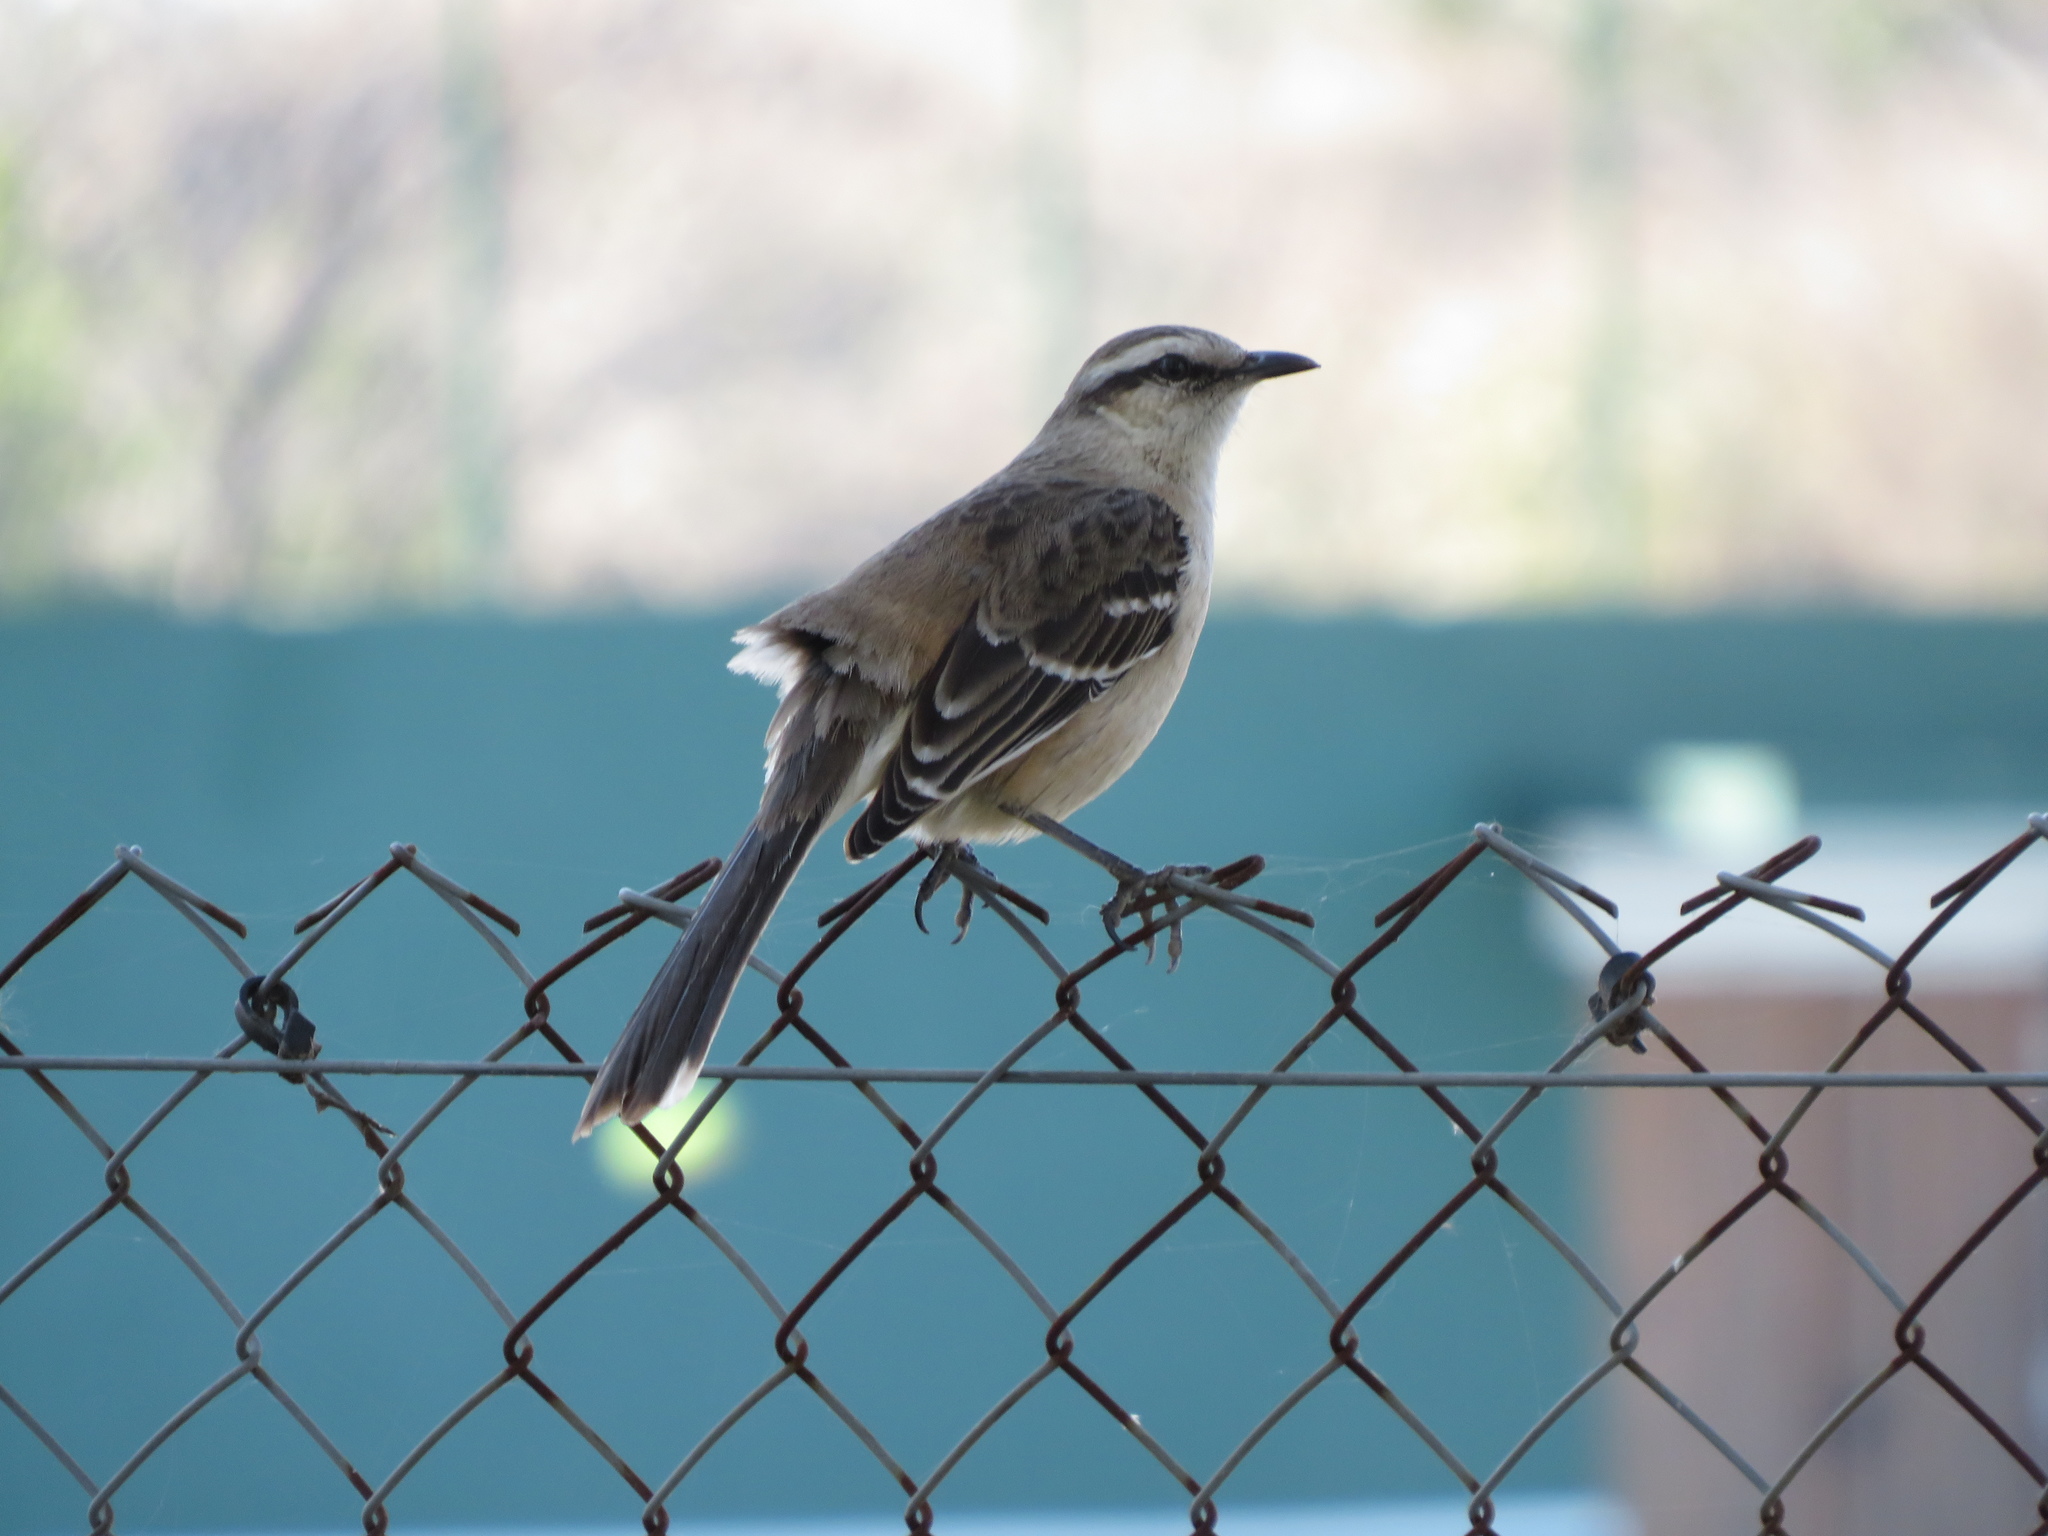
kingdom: Animalia
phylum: Chordata
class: Aves
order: Passeriformes
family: Mimidae
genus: Mimus
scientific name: Mimus saturninus
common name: Chalk-browed mockingbird
